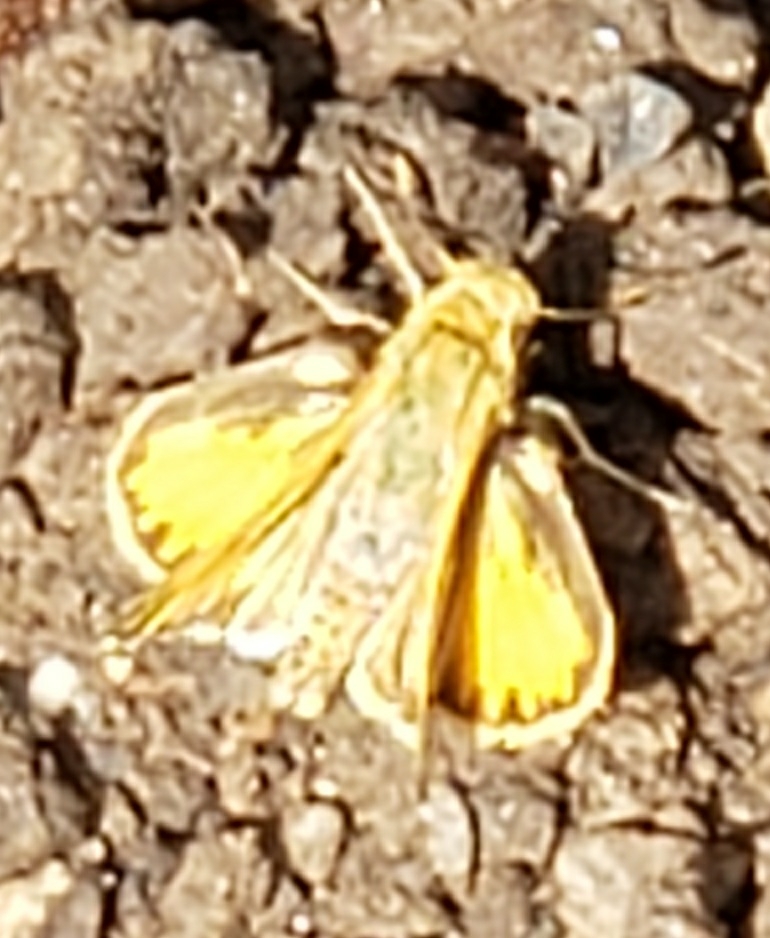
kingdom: Animalia
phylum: Arthropoda
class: Insecta
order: Lepidoptera
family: Hesperiidae
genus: Hylephila
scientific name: Hylephila phyleus
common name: Fiery skipper
